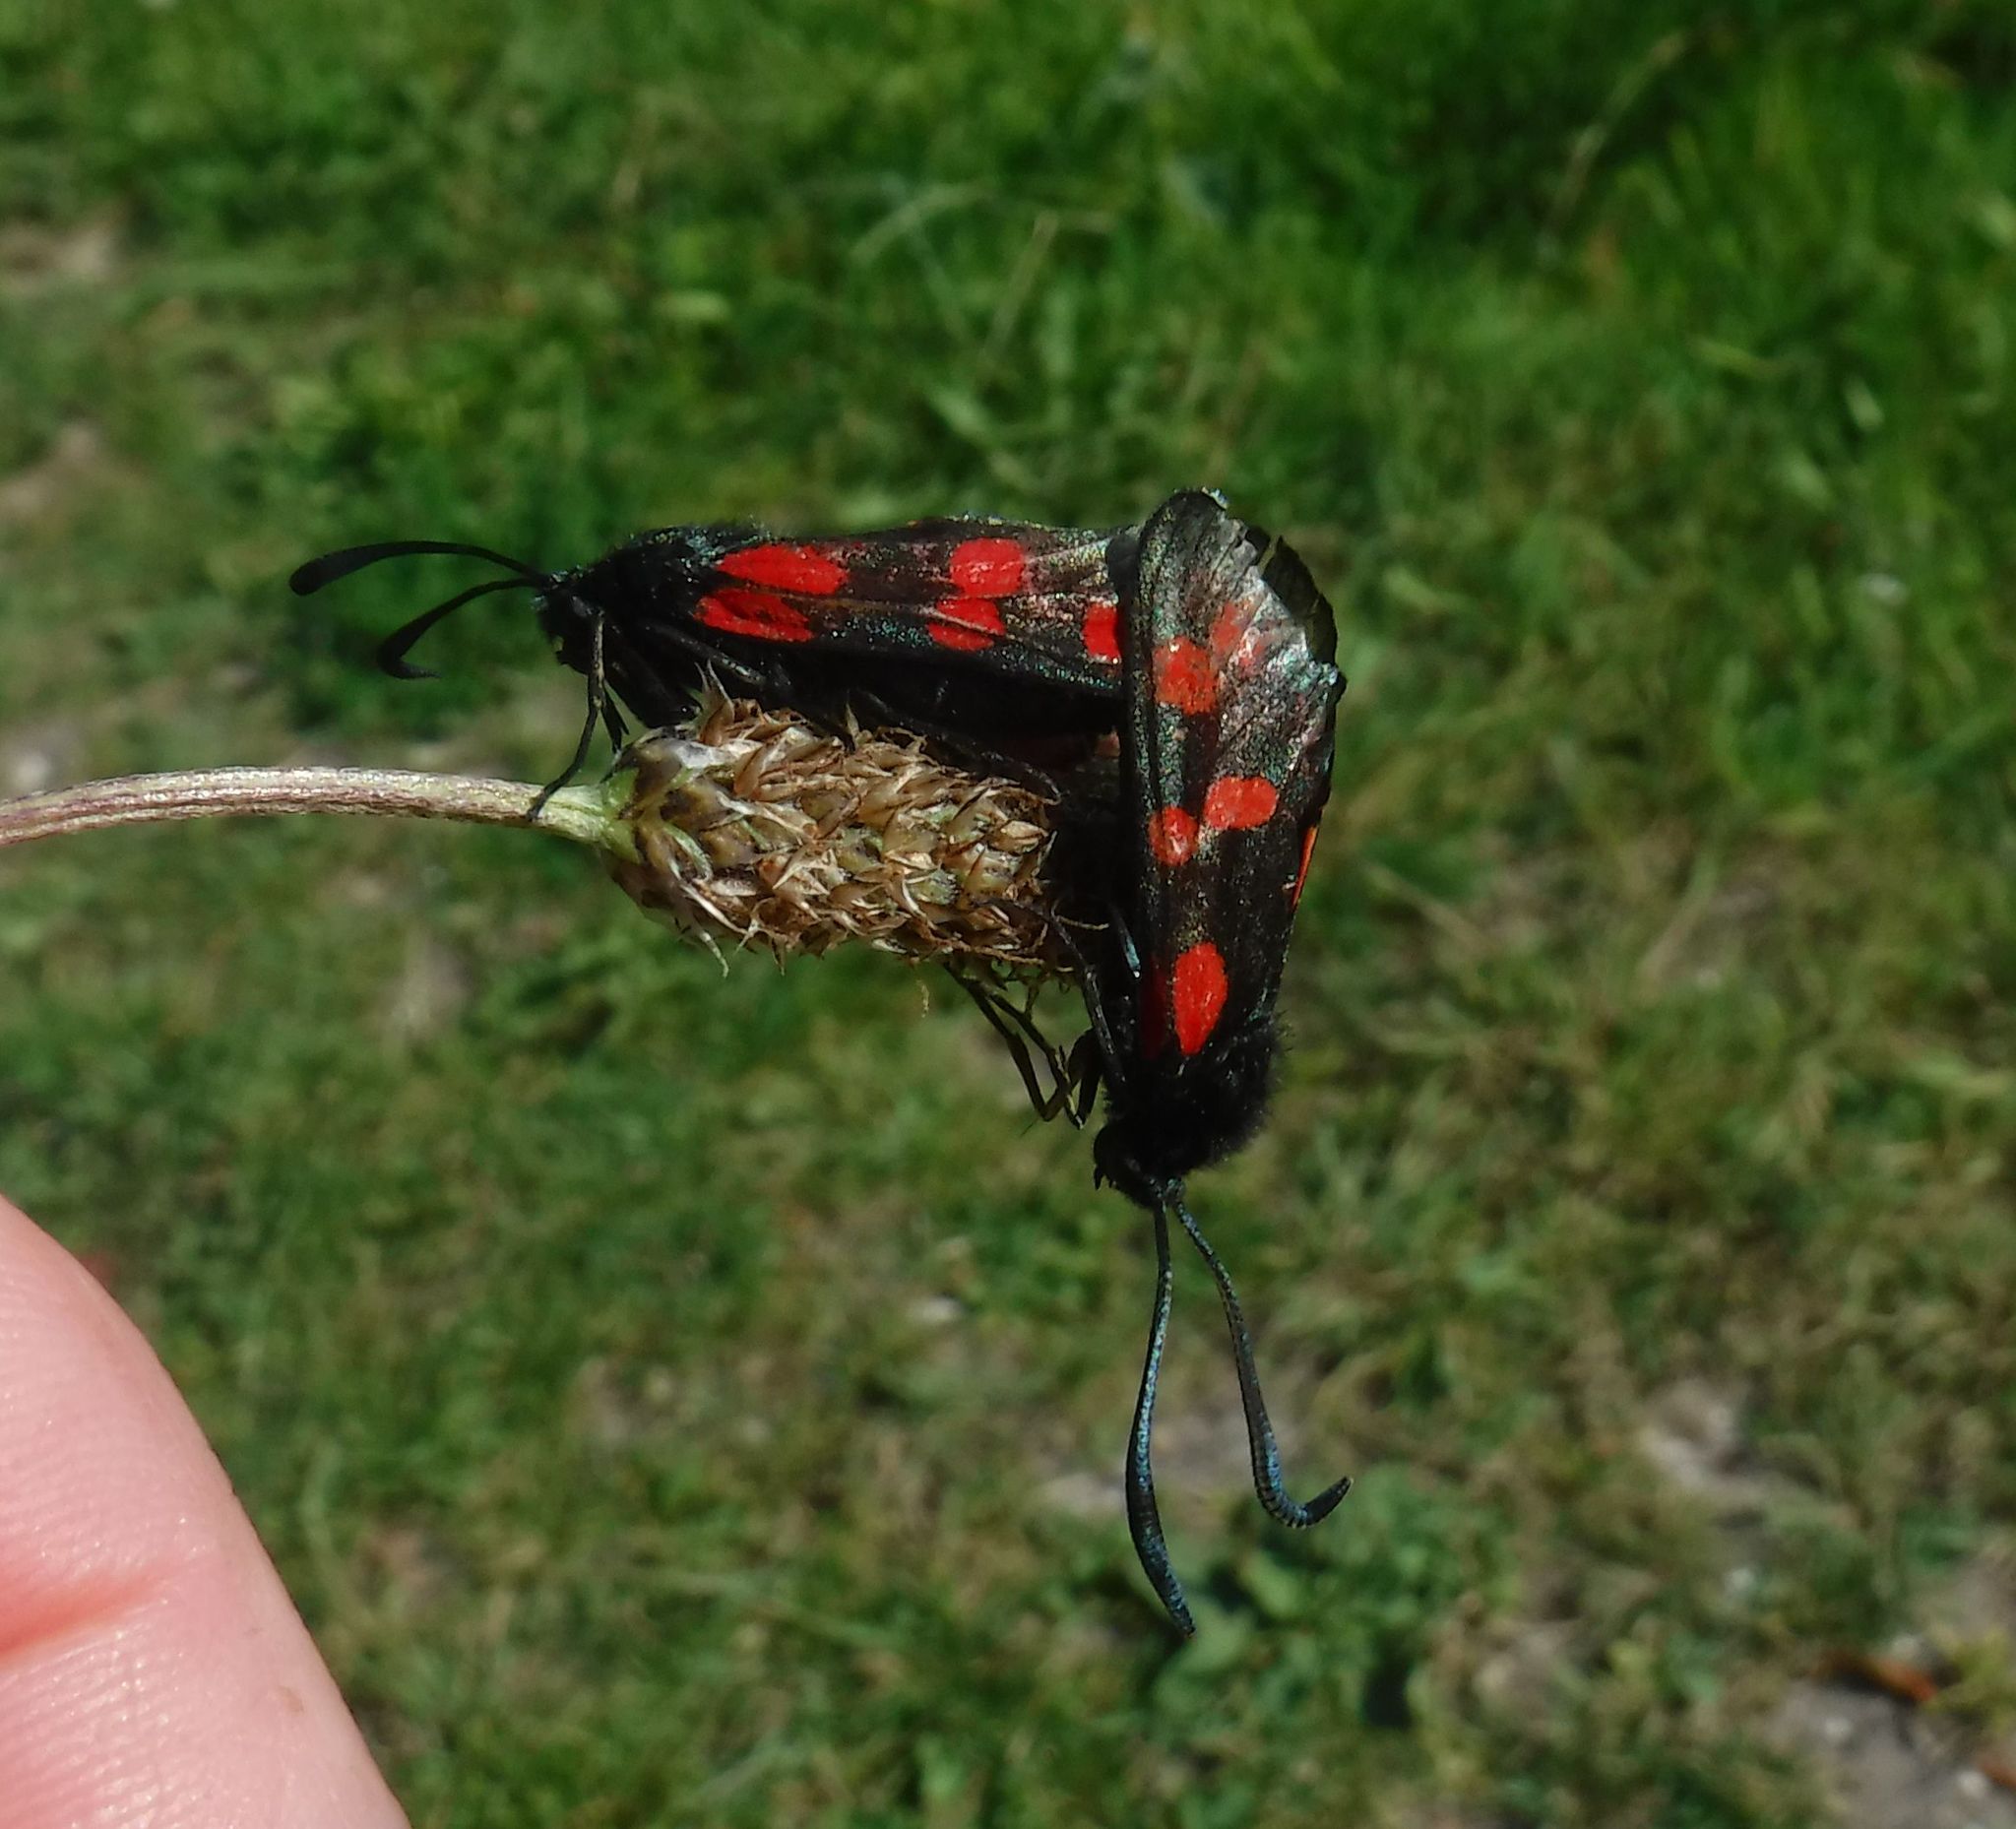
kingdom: Animalia
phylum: Arthropoda
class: Insecta
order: Lepidoptera
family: Zygaenidae
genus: Zygaena
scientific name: Zygaena filipendulae
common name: Six-spot burnet
